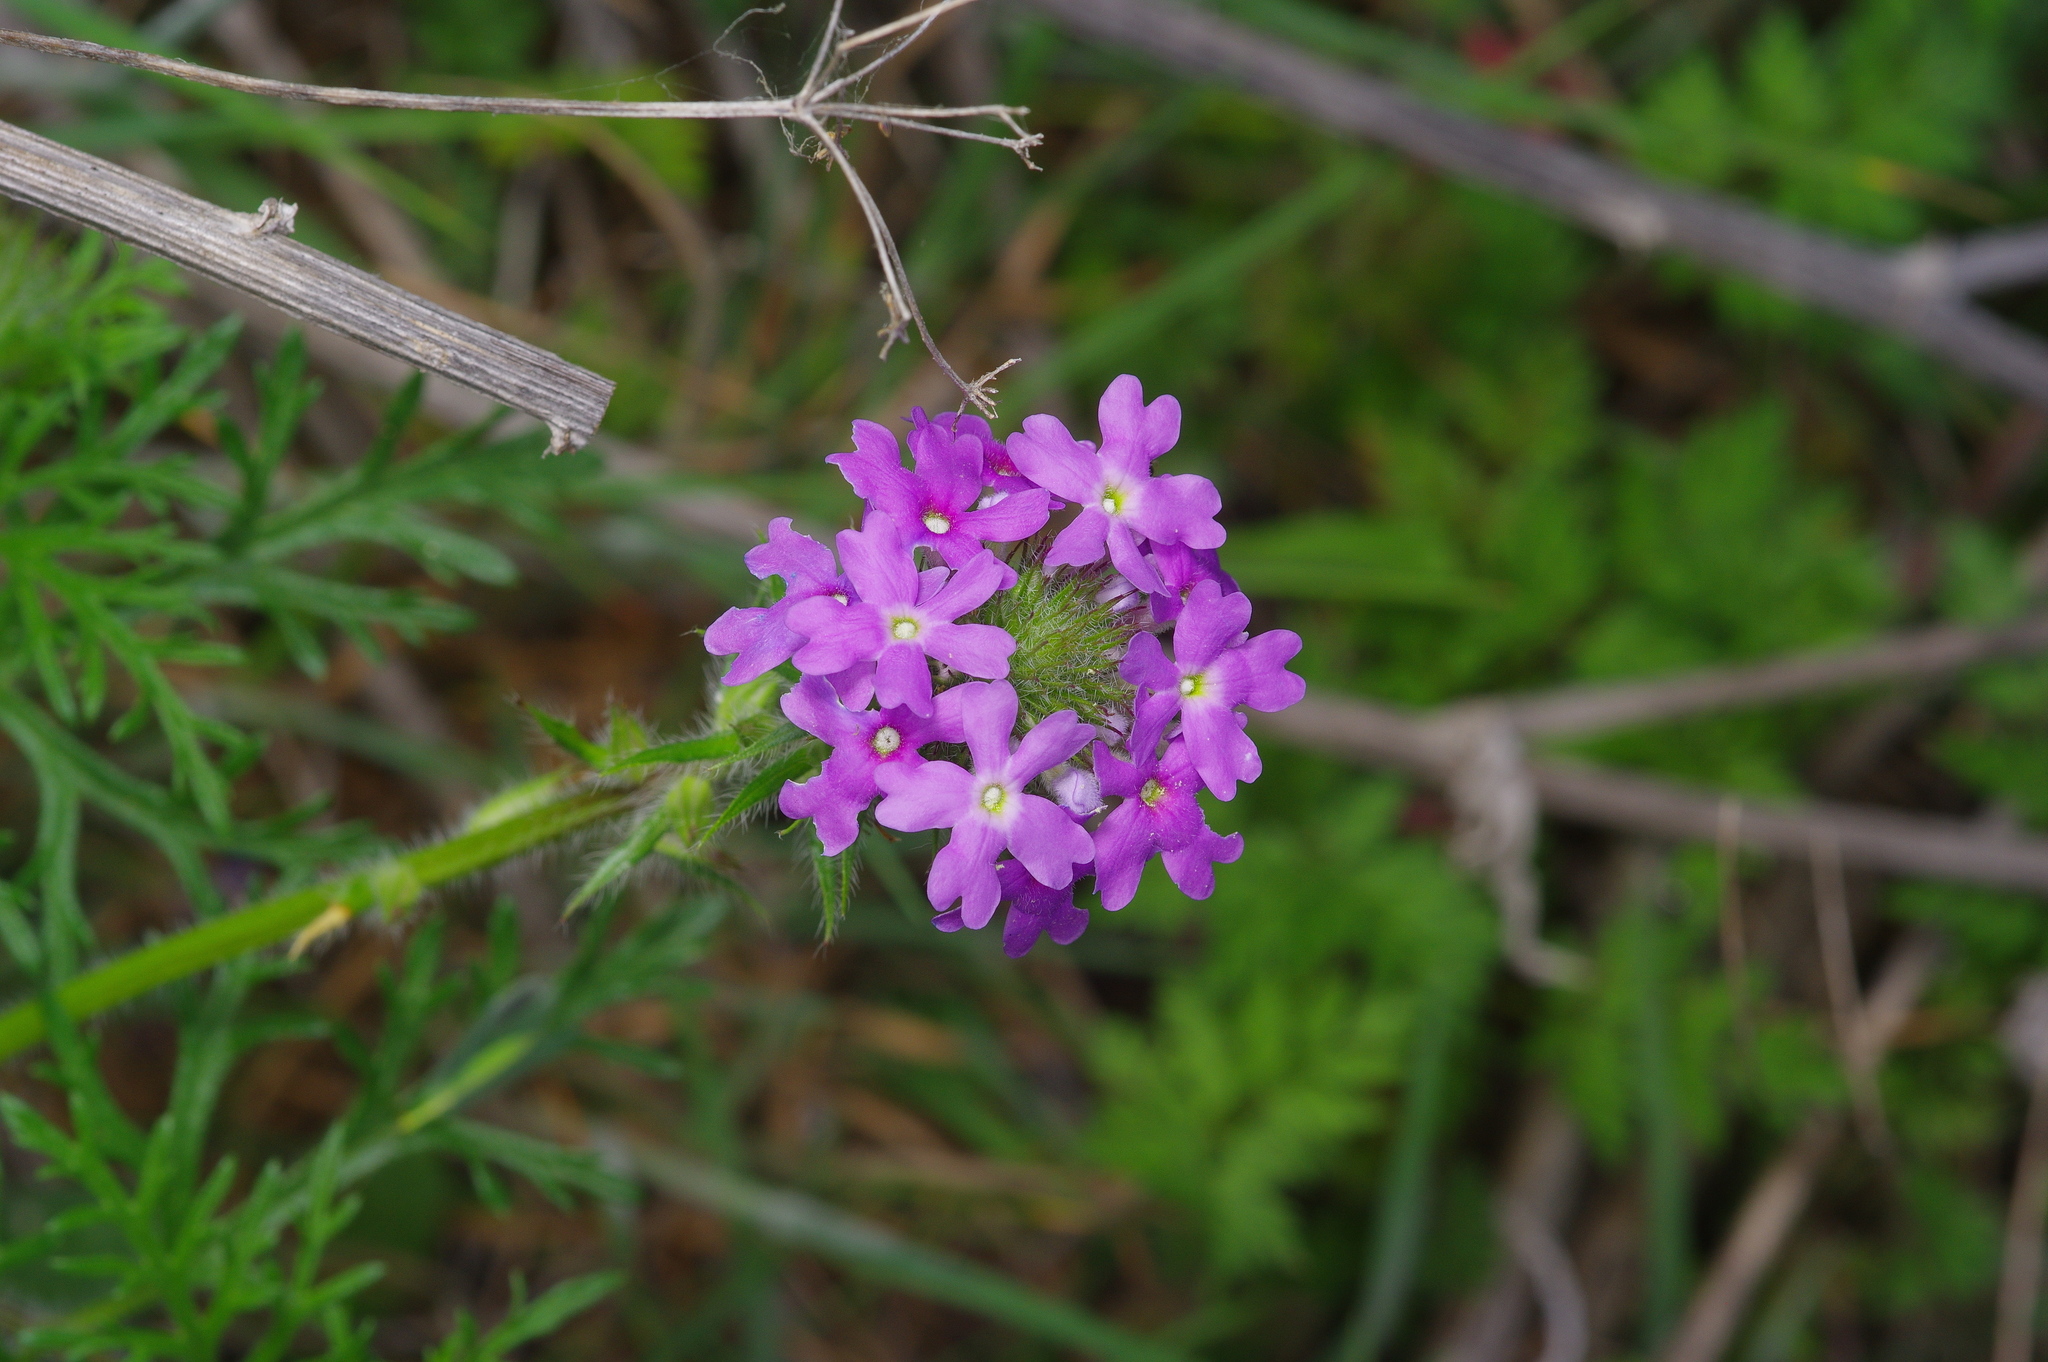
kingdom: Plantae
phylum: Tracheophyta
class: Magnoliopsida
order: Lamiales
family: Verbenaceae
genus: Verbena
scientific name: Verbena bipinnatifida
